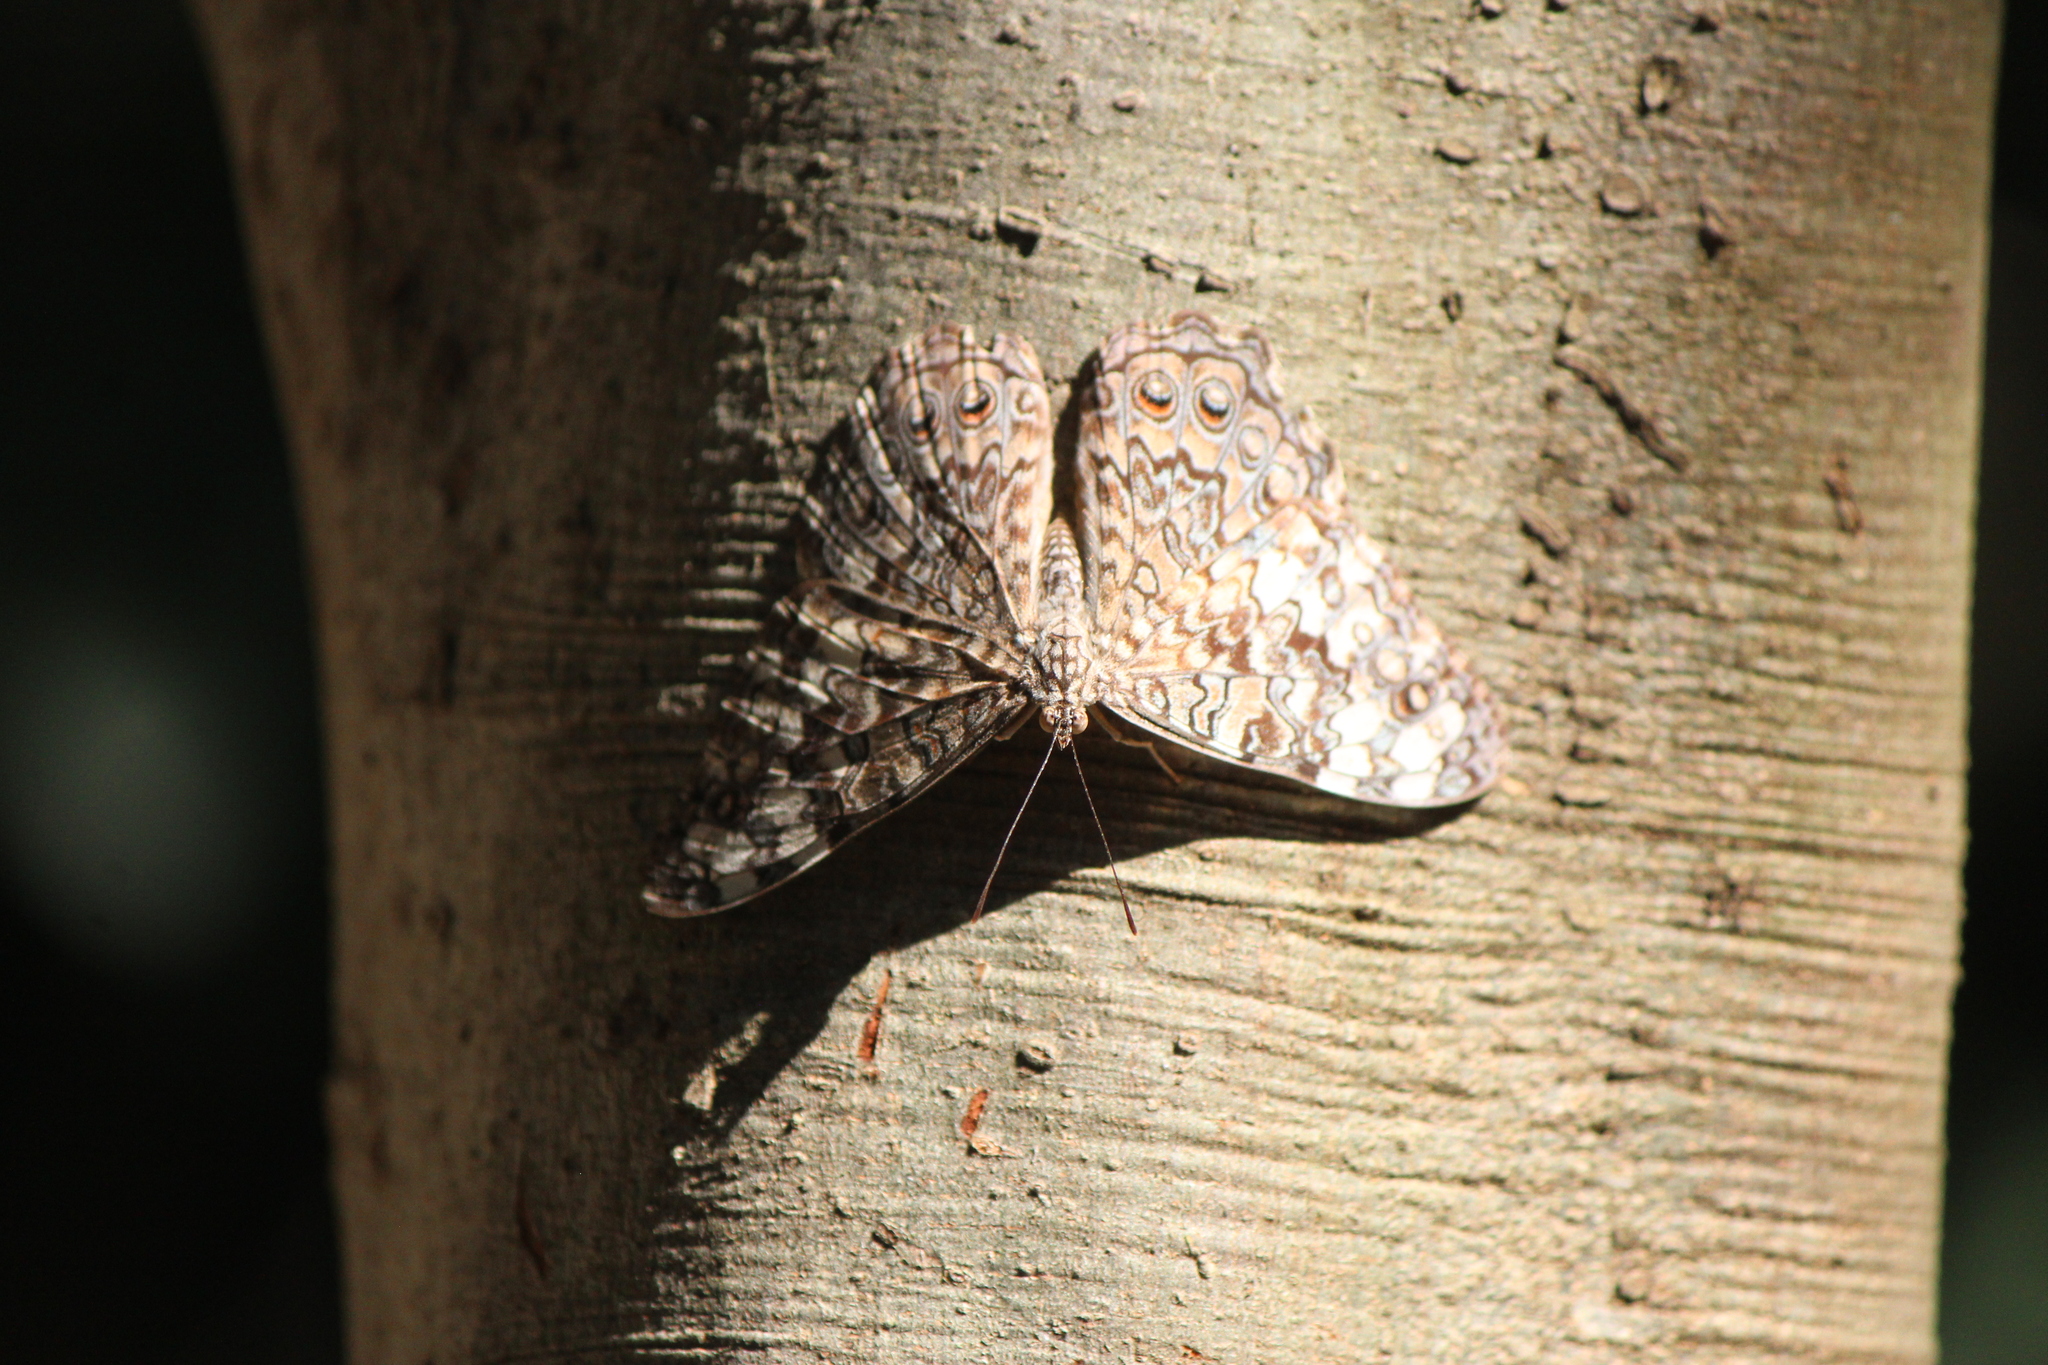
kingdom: Animalia
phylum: Arthropoda
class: Insecta
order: Lepidoptera
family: Nymphalidae
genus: Hamadryas
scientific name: Hamadryas februa
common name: Gray cracker
